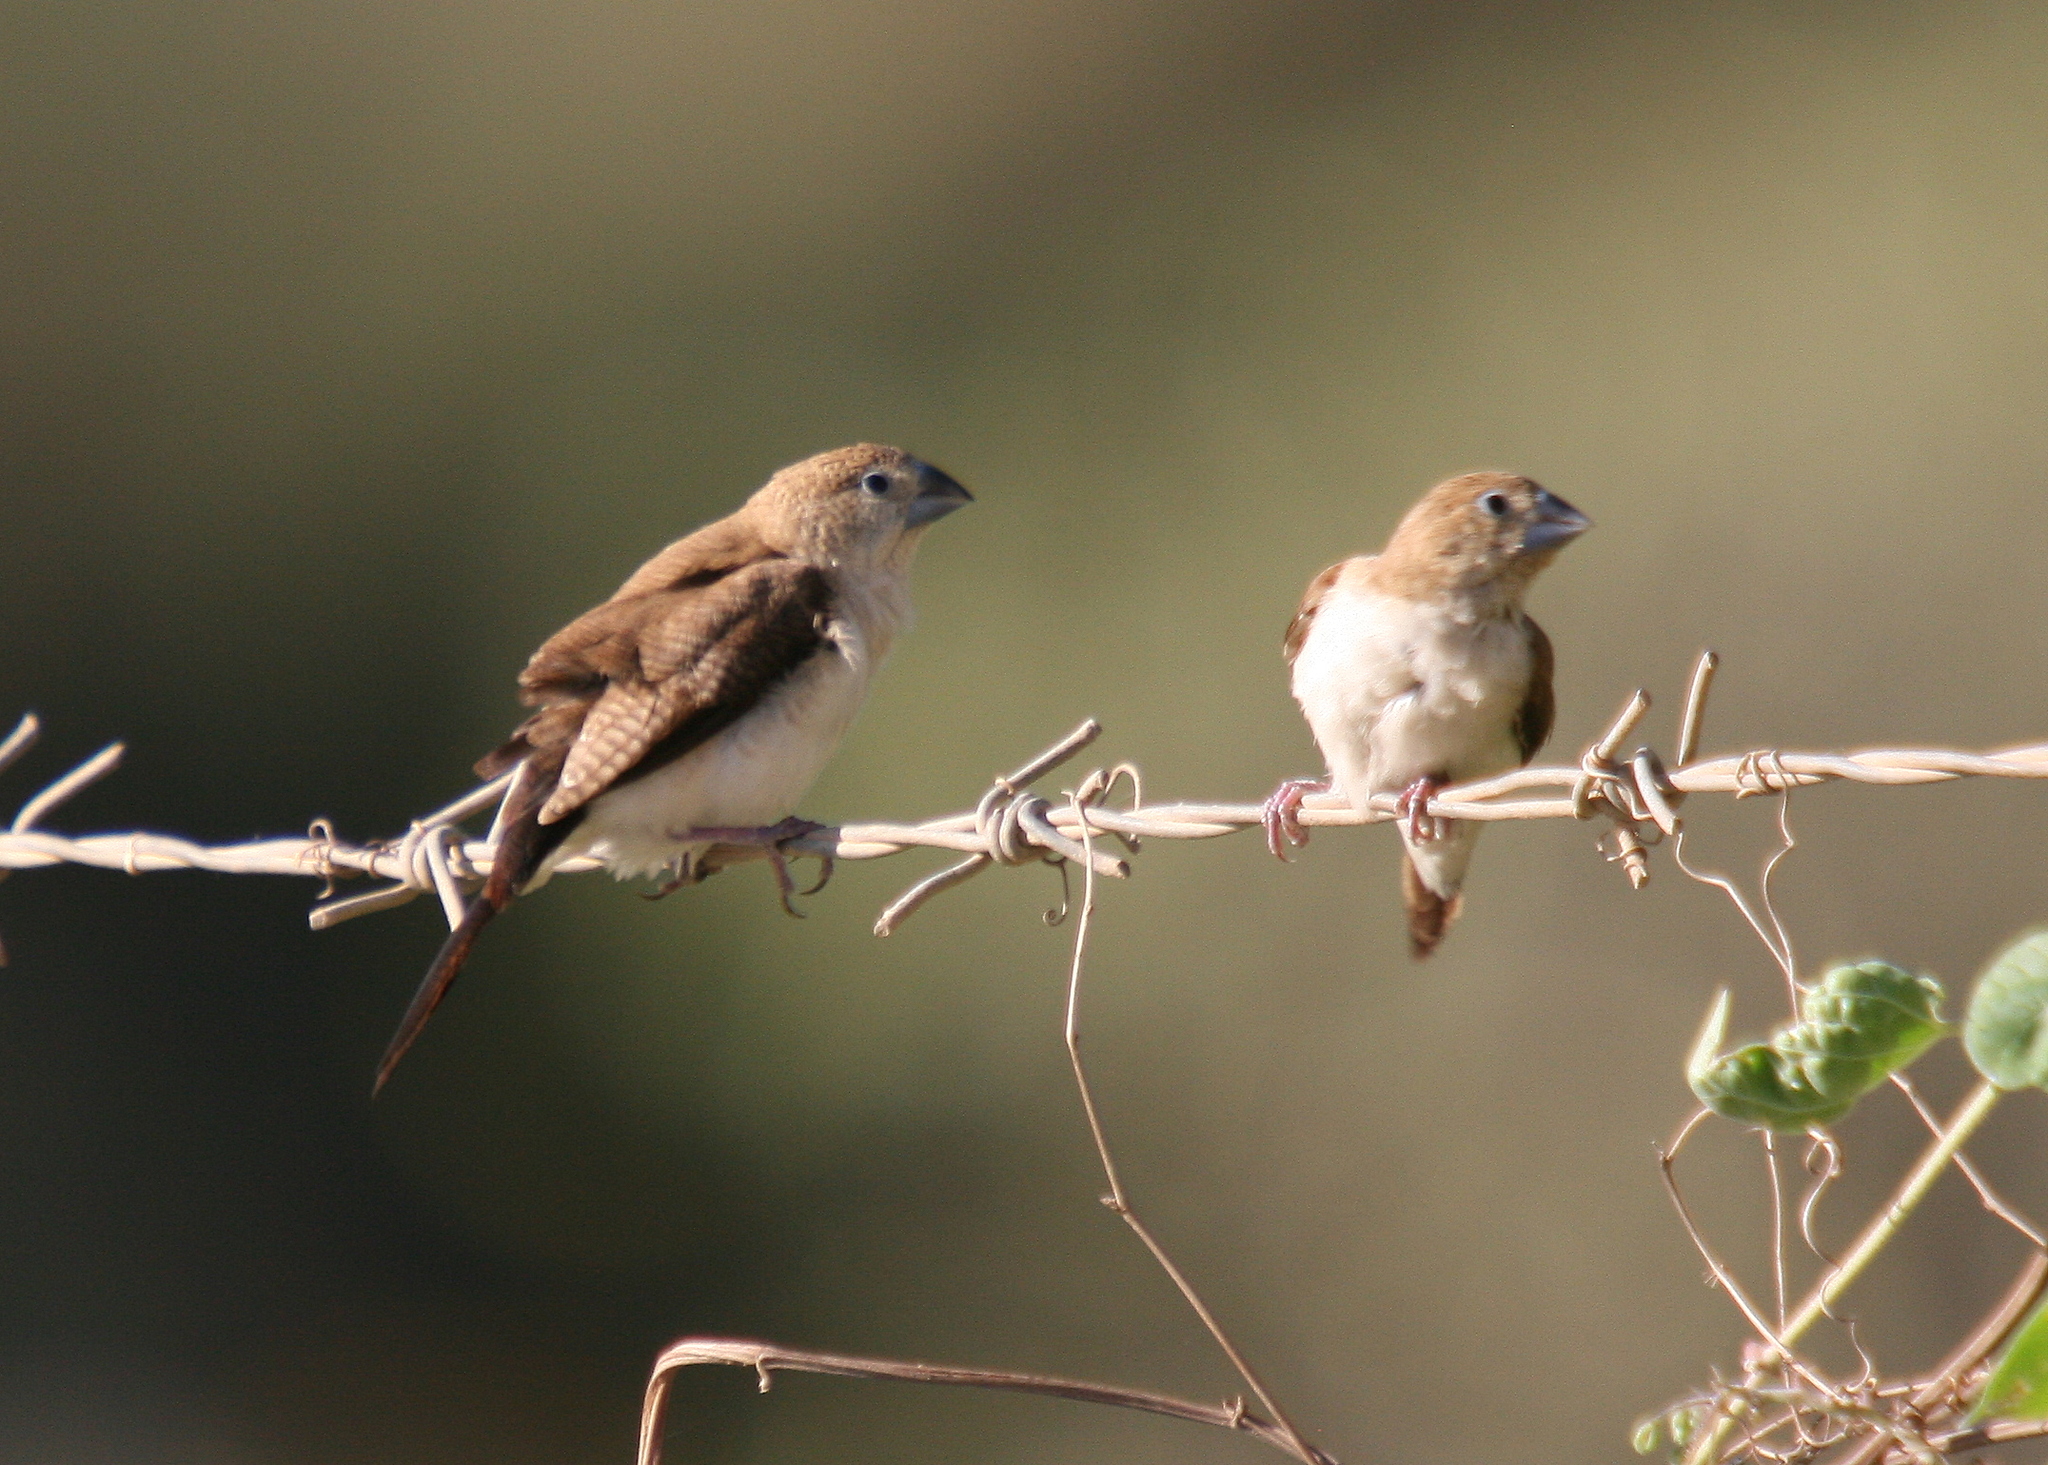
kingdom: Animalia
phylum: Chordata
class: Aves
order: Passeriformes
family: Estrildidae
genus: Euodice
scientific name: Euodice cantans
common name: African silverbill
